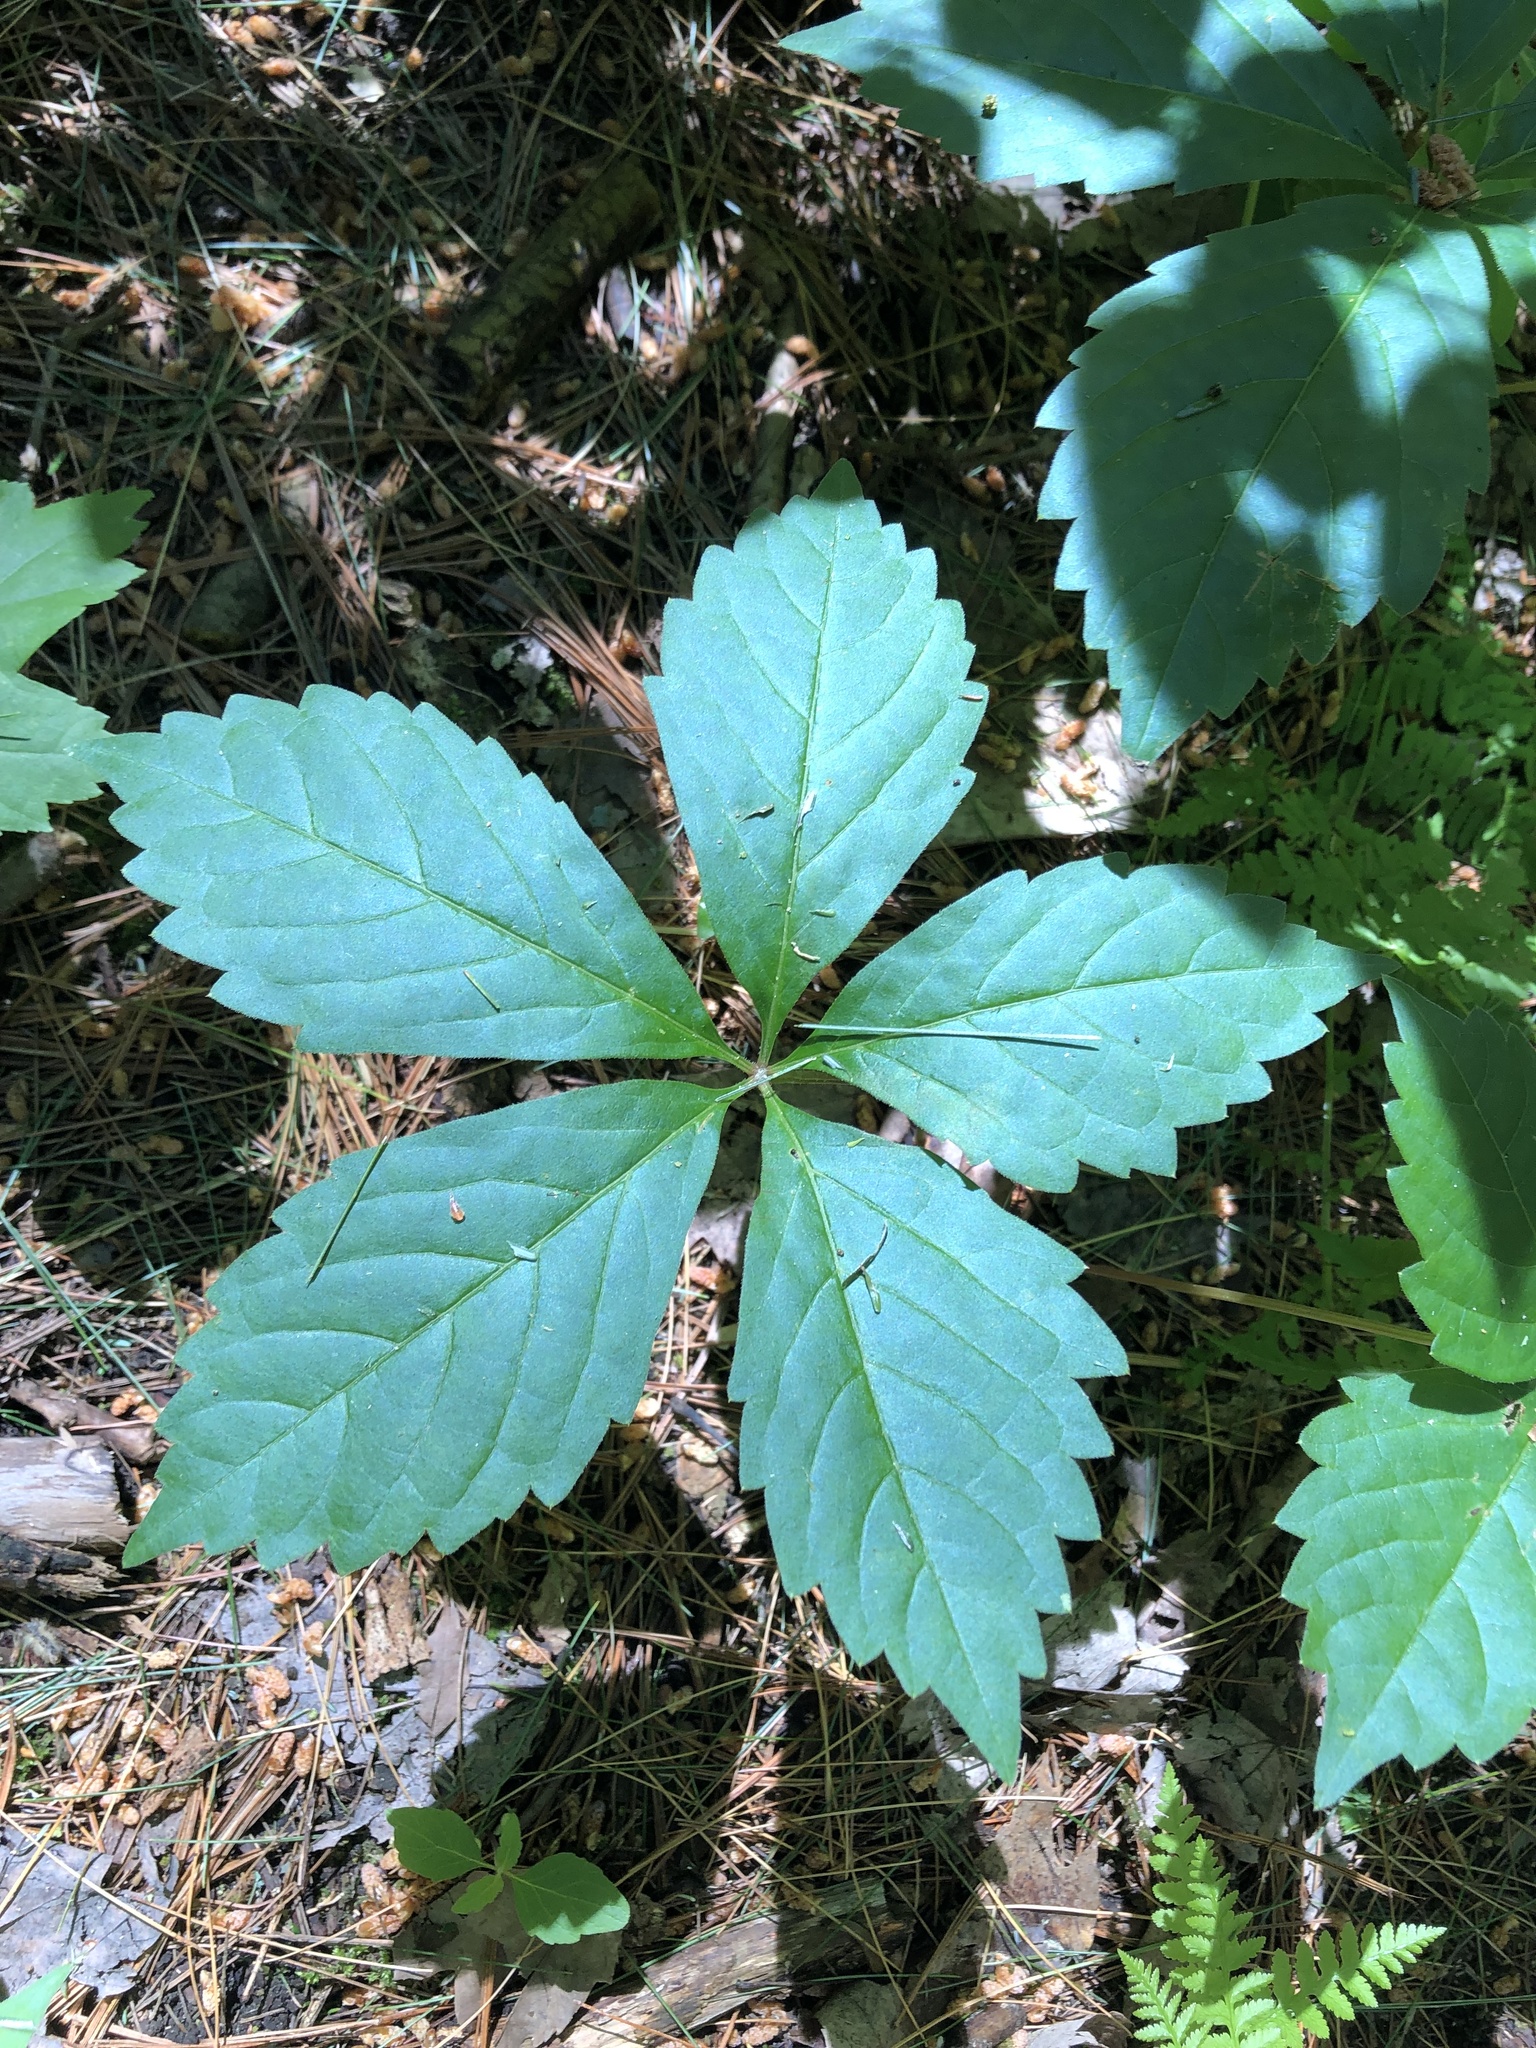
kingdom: Plantae
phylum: Tracheophyta
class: Magnoliopsida
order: Vitales
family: Vitaceae
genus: Parthenocissus
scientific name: Parthenocissus quinquefolia
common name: Virginia-creeper
